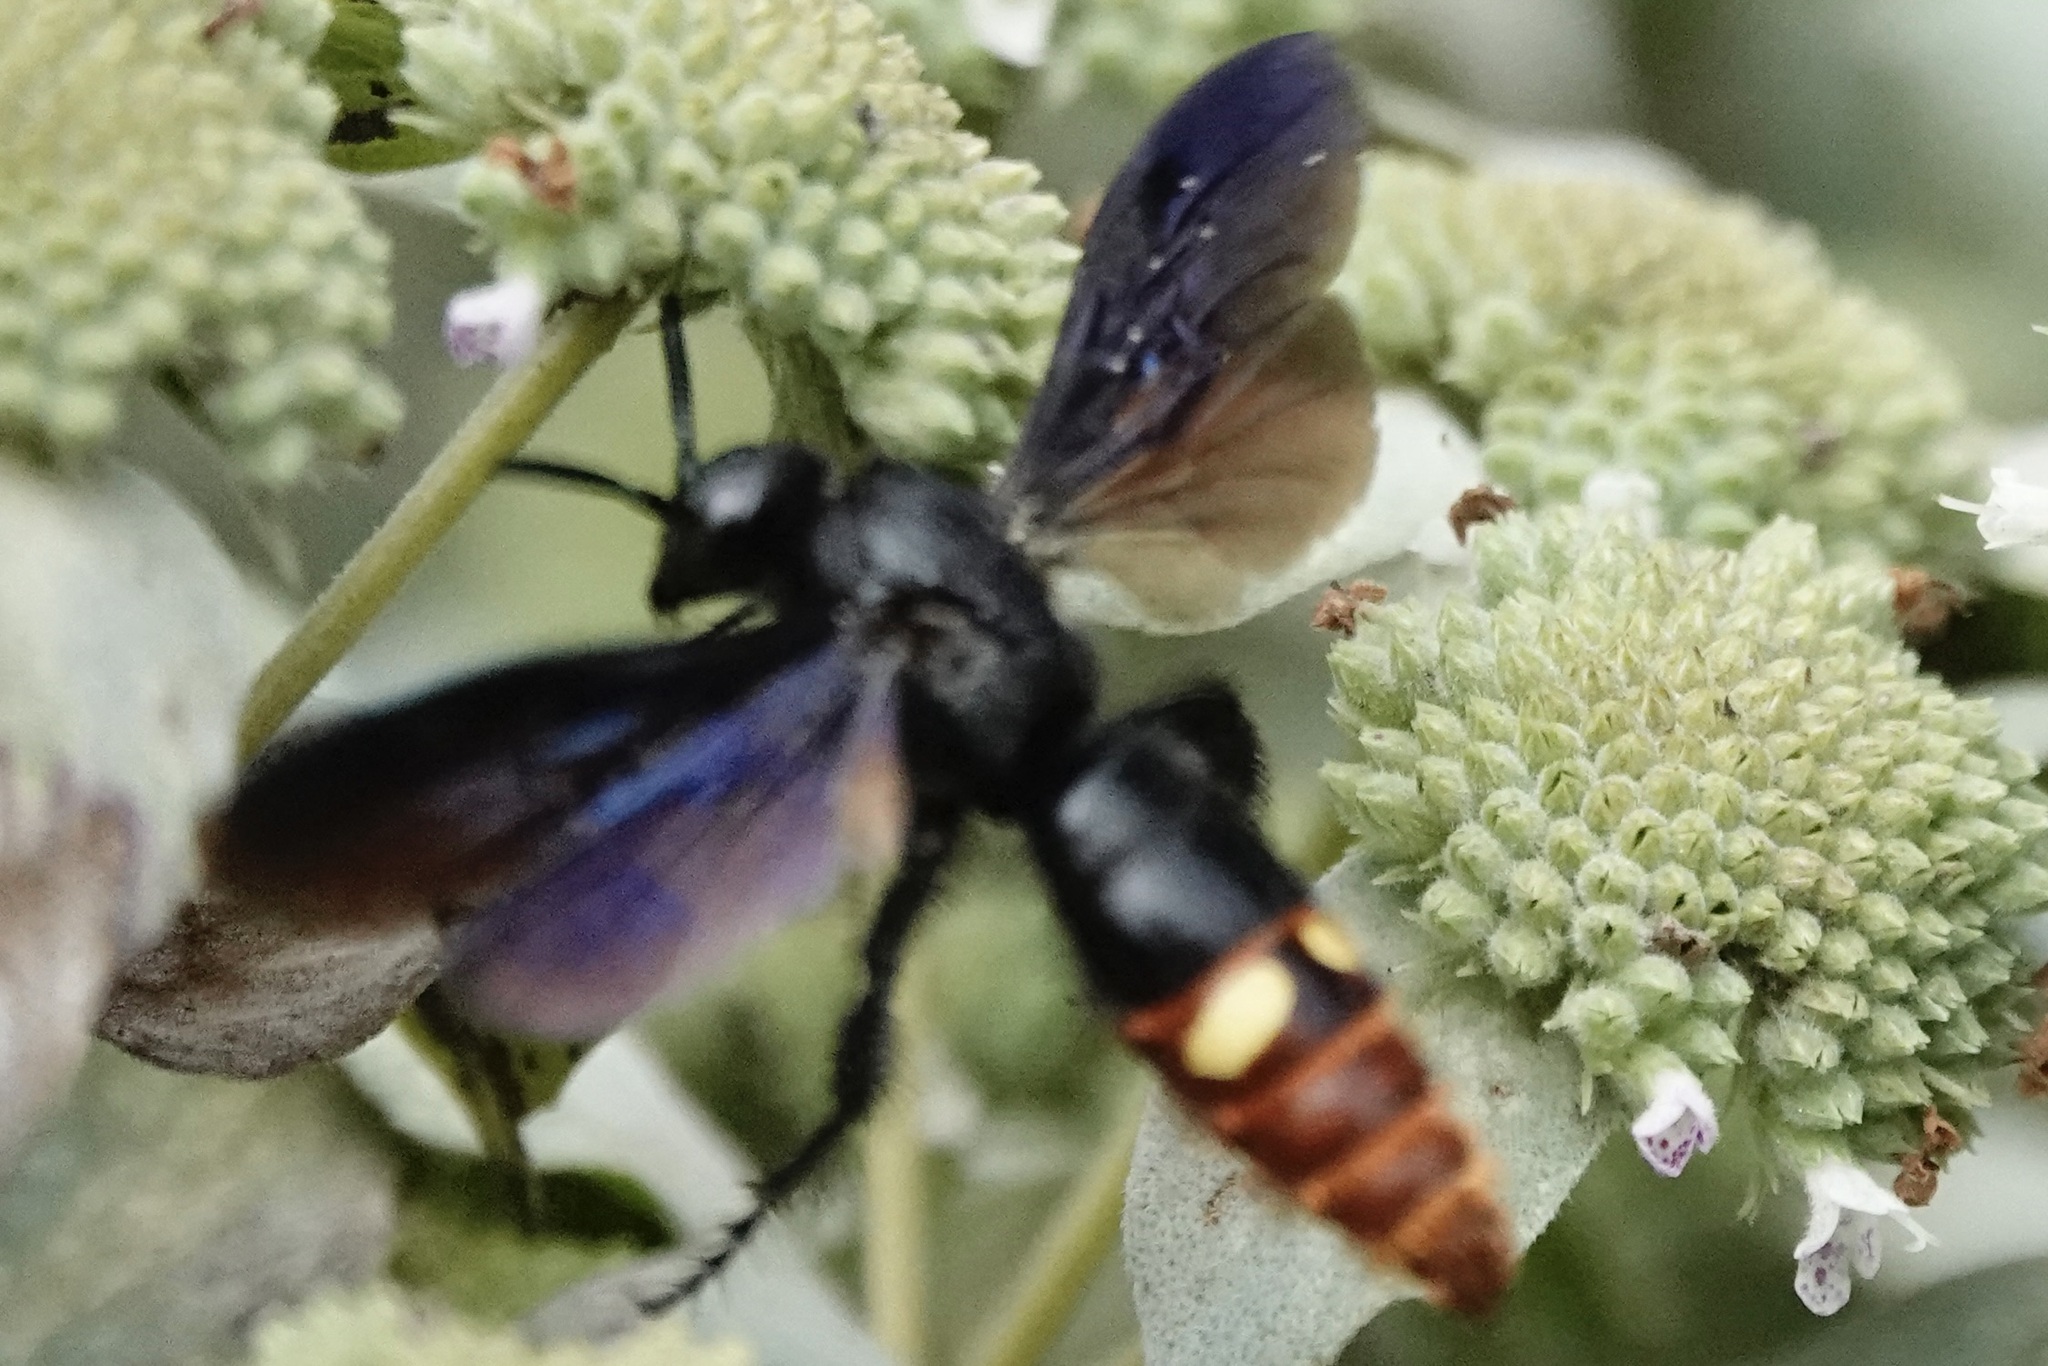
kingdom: Animalia
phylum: Arthropoda
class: Insecta
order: Hymenoptera
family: Scoliidae
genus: Scolia
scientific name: Scolia dubia
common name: Blue-winged scoliid wasp
